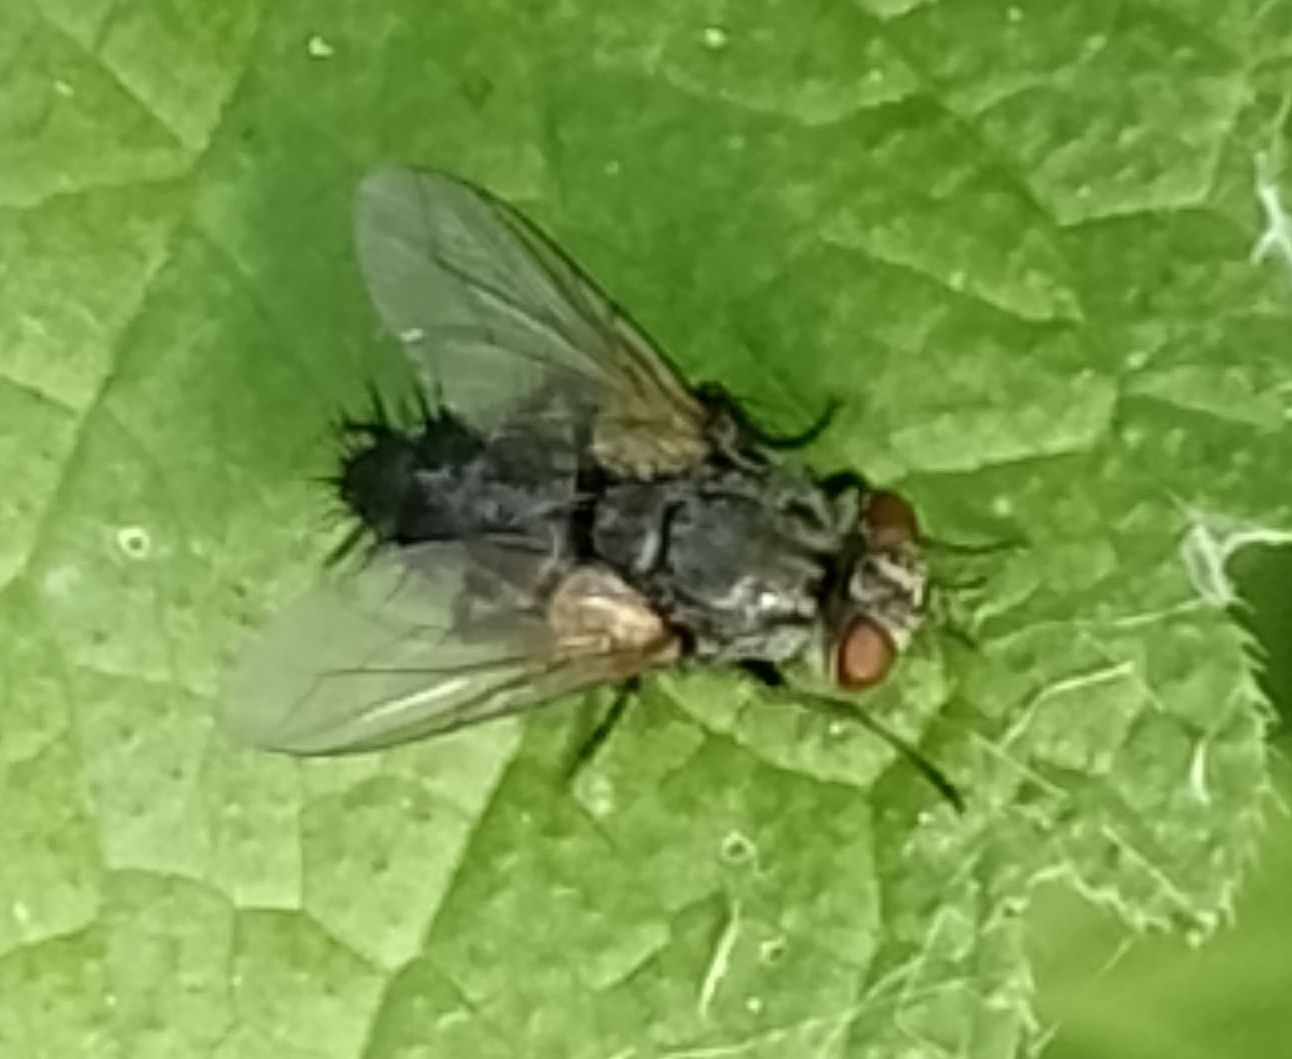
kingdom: Animalia
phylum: Arthropoda
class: Insecta
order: Diptera
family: Tachinidae
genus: Voria
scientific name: Voria ruralis
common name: Parasitic fly
